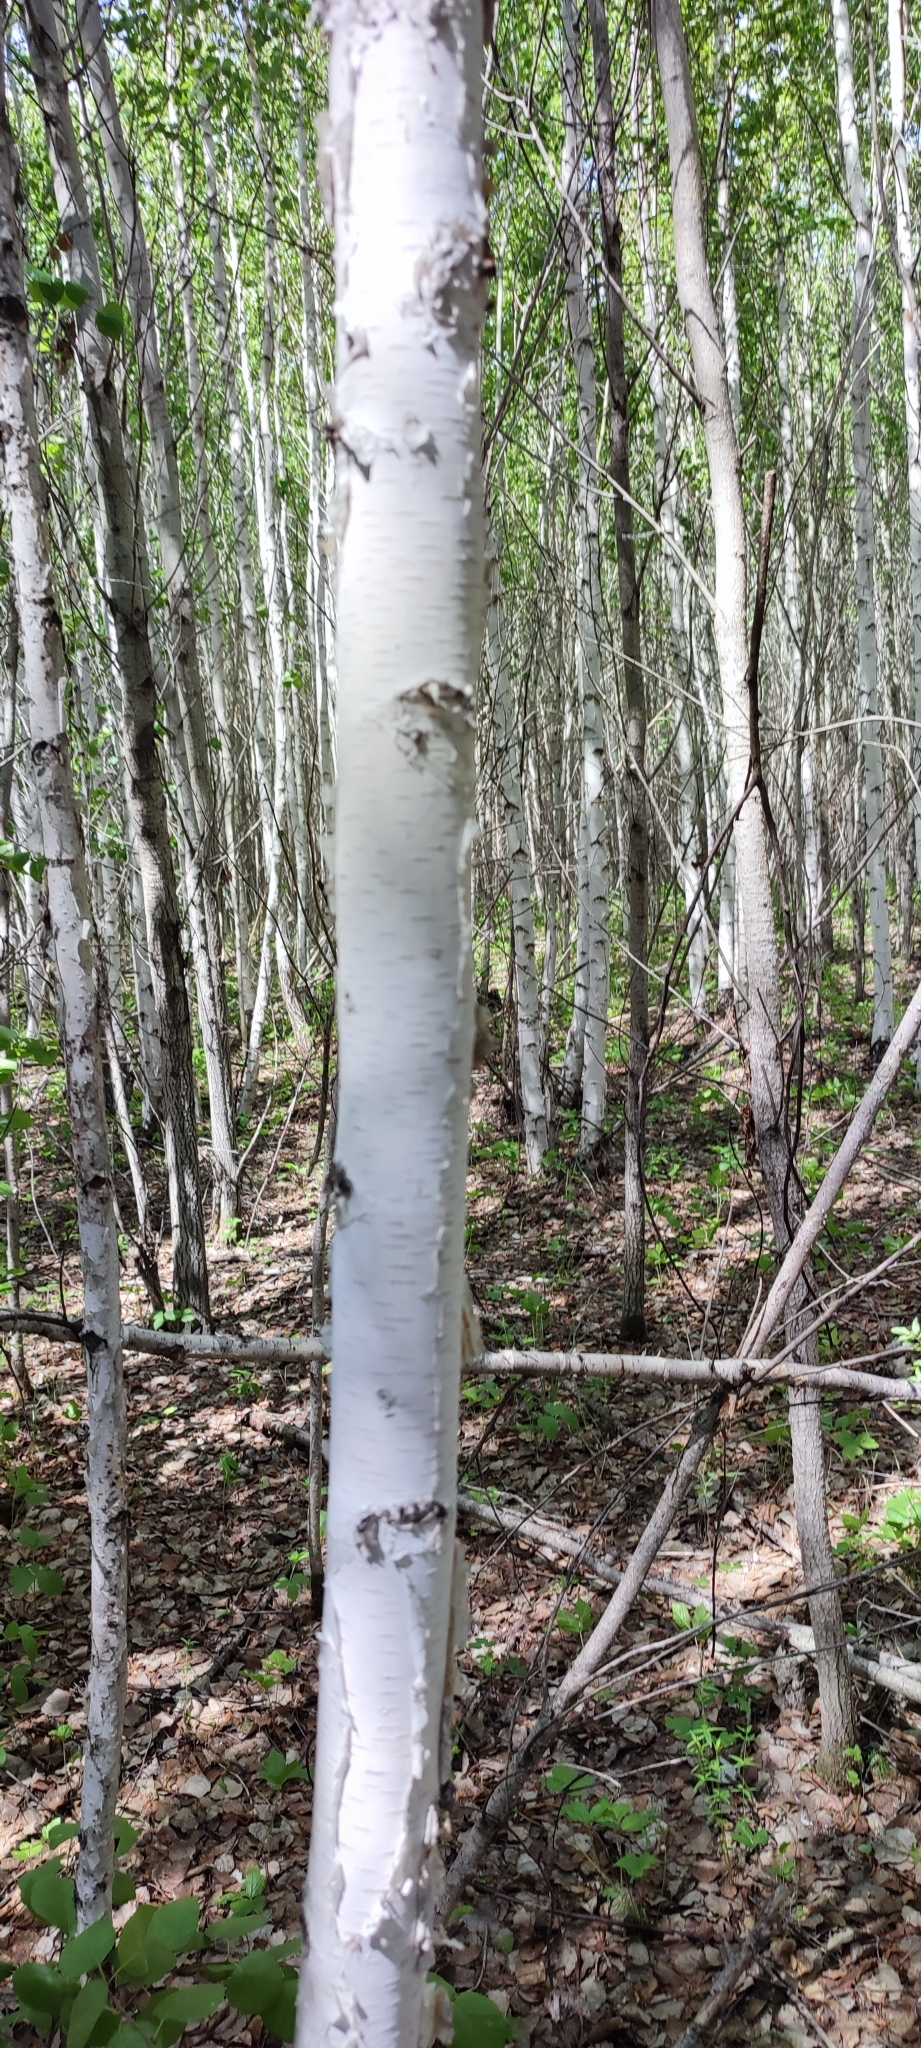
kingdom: Plantae
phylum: Tracheophyta
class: Magnoliopsida
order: Fagales
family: Betulaceae
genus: Betula
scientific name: Betula pubescens
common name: Downy birch
